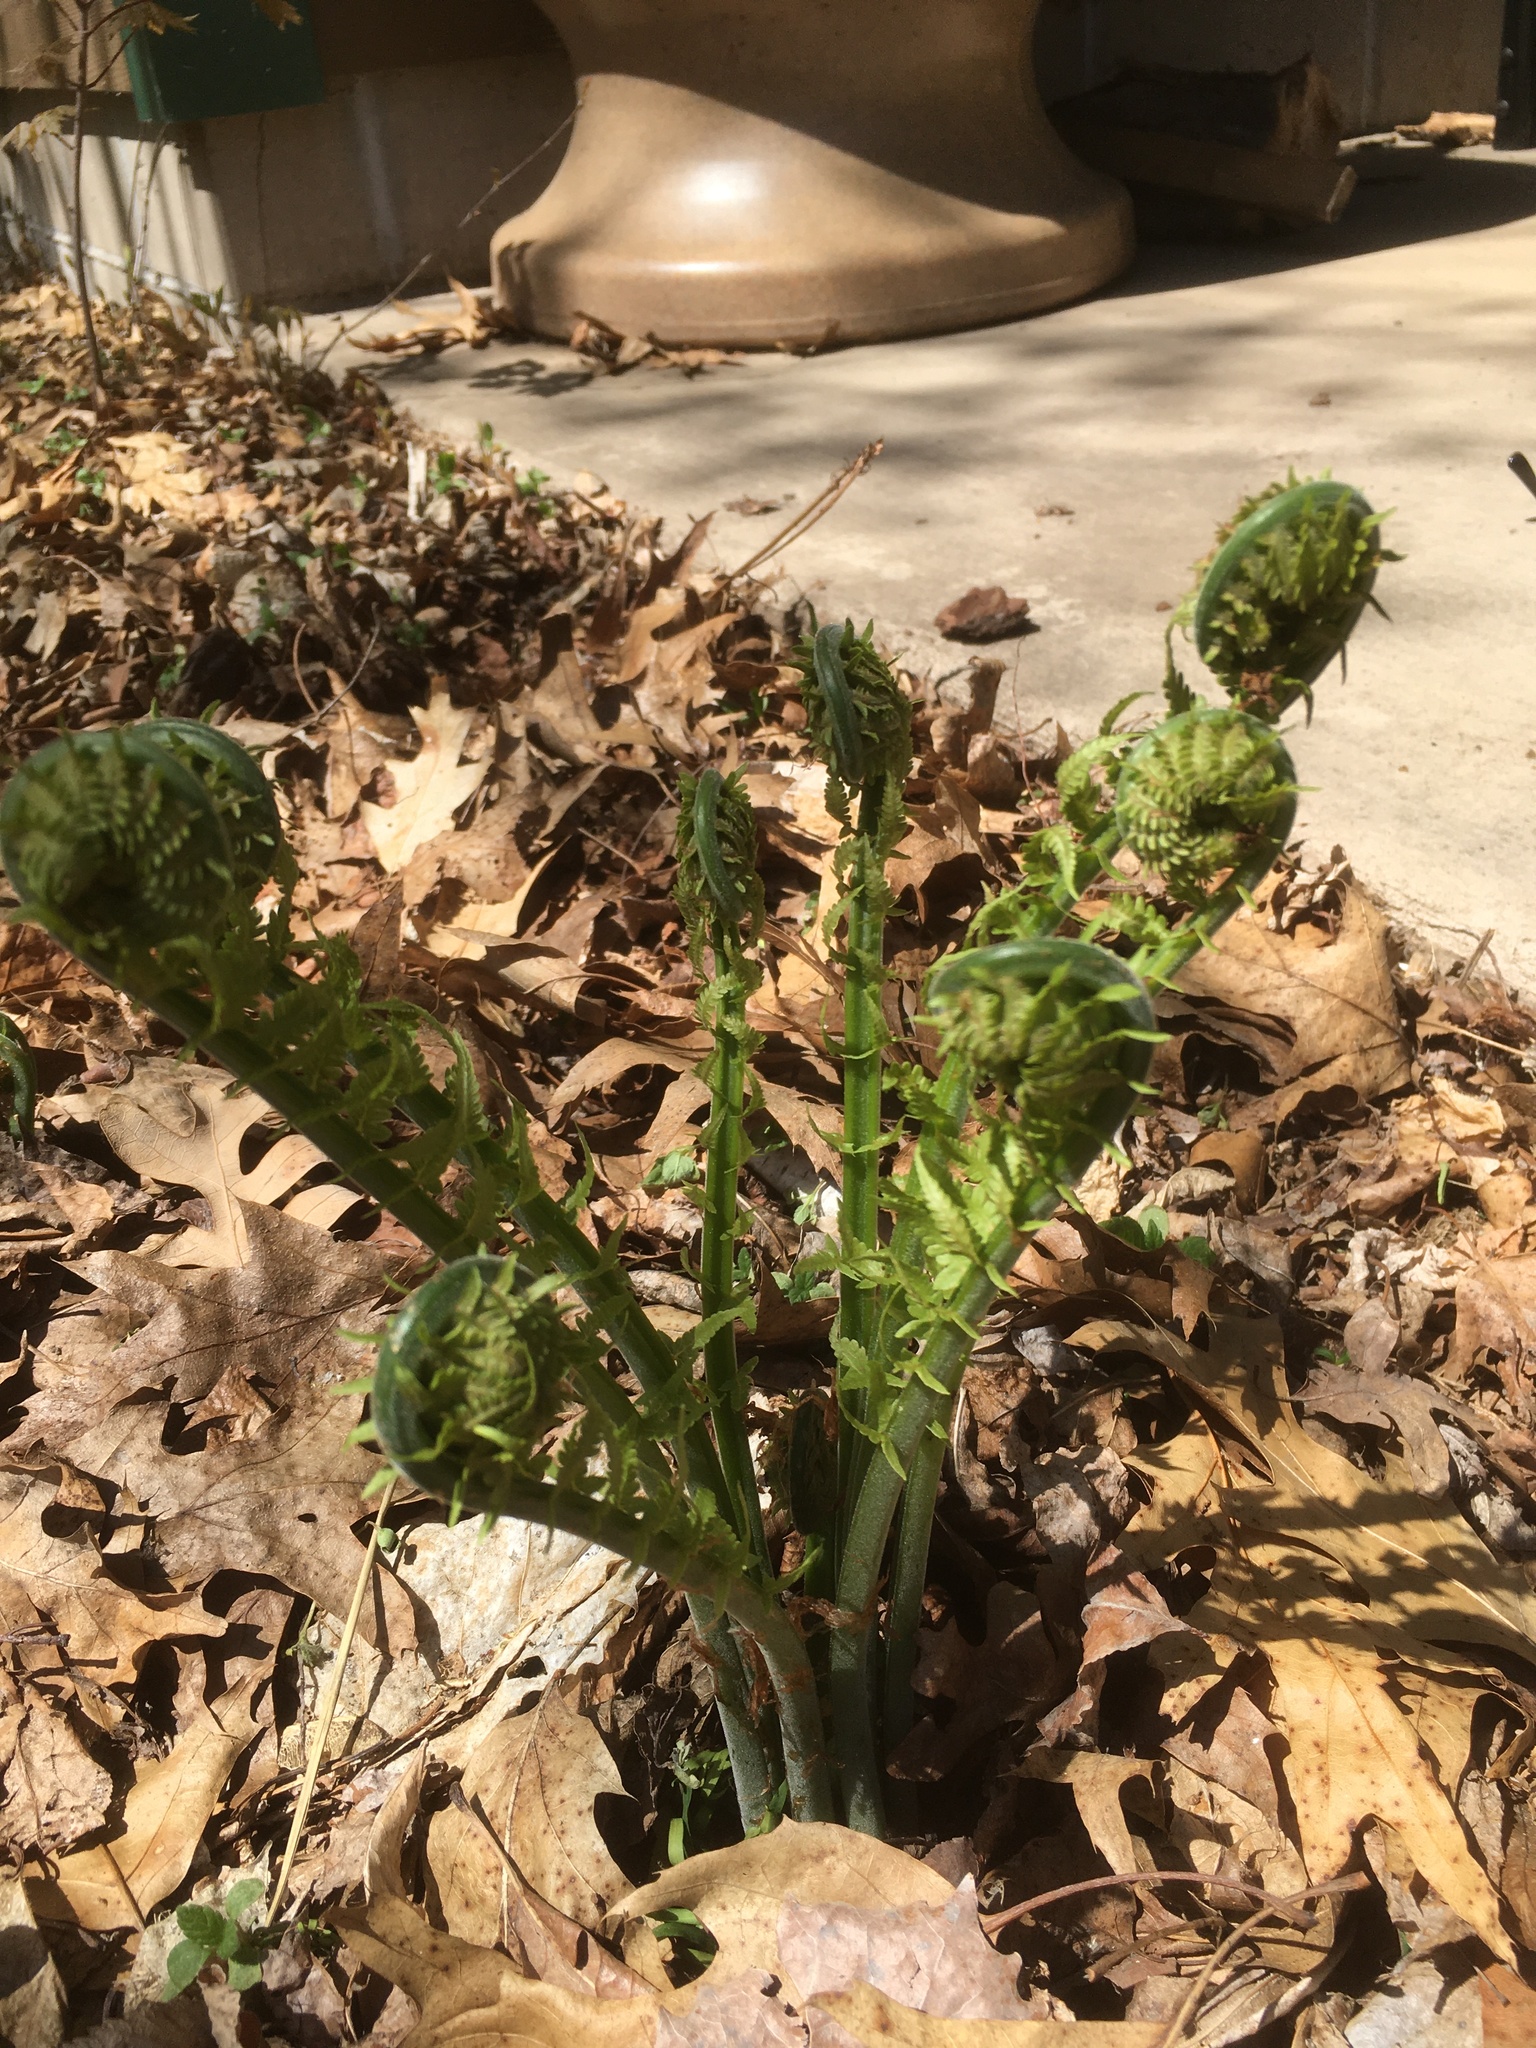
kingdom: Plantae
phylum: Tracheophyta
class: Polypodiopsida
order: Polypodiales
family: Onocleaceae
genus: Matteuccia
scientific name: Matteuccia struthiopteris
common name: Ostrich fern
